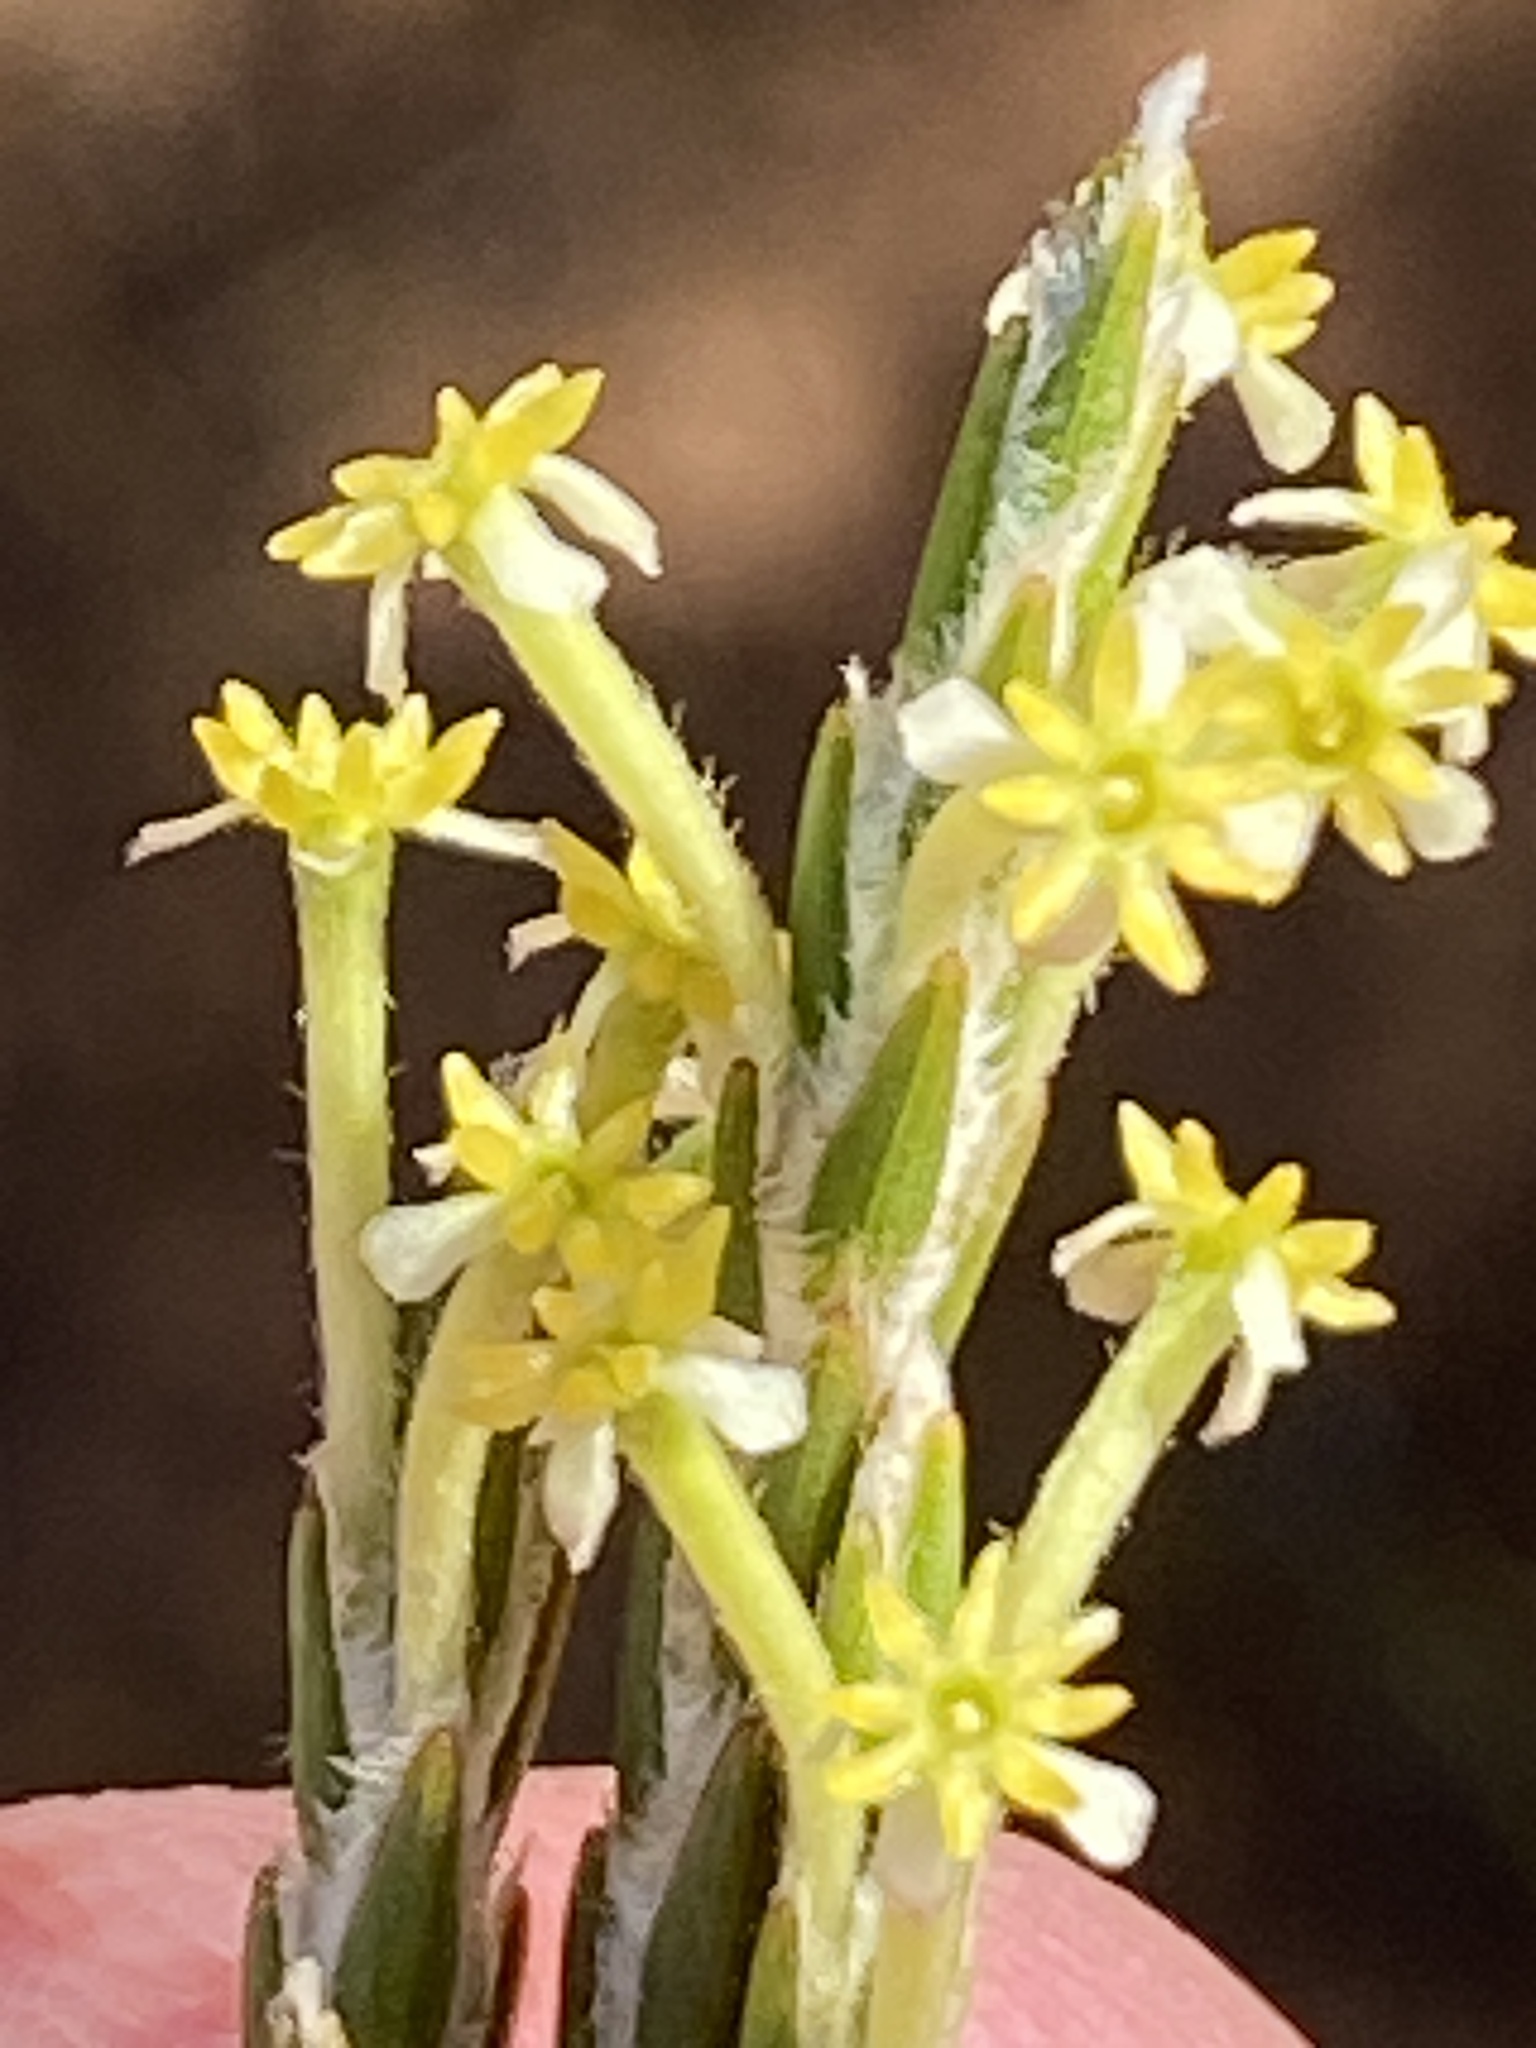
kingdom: Plantae
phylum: Tracheophyta
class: Magnoliopsida
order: Malvales
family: Thymelaeaceae
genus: Struthiola
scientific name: Struthiola ciliata
